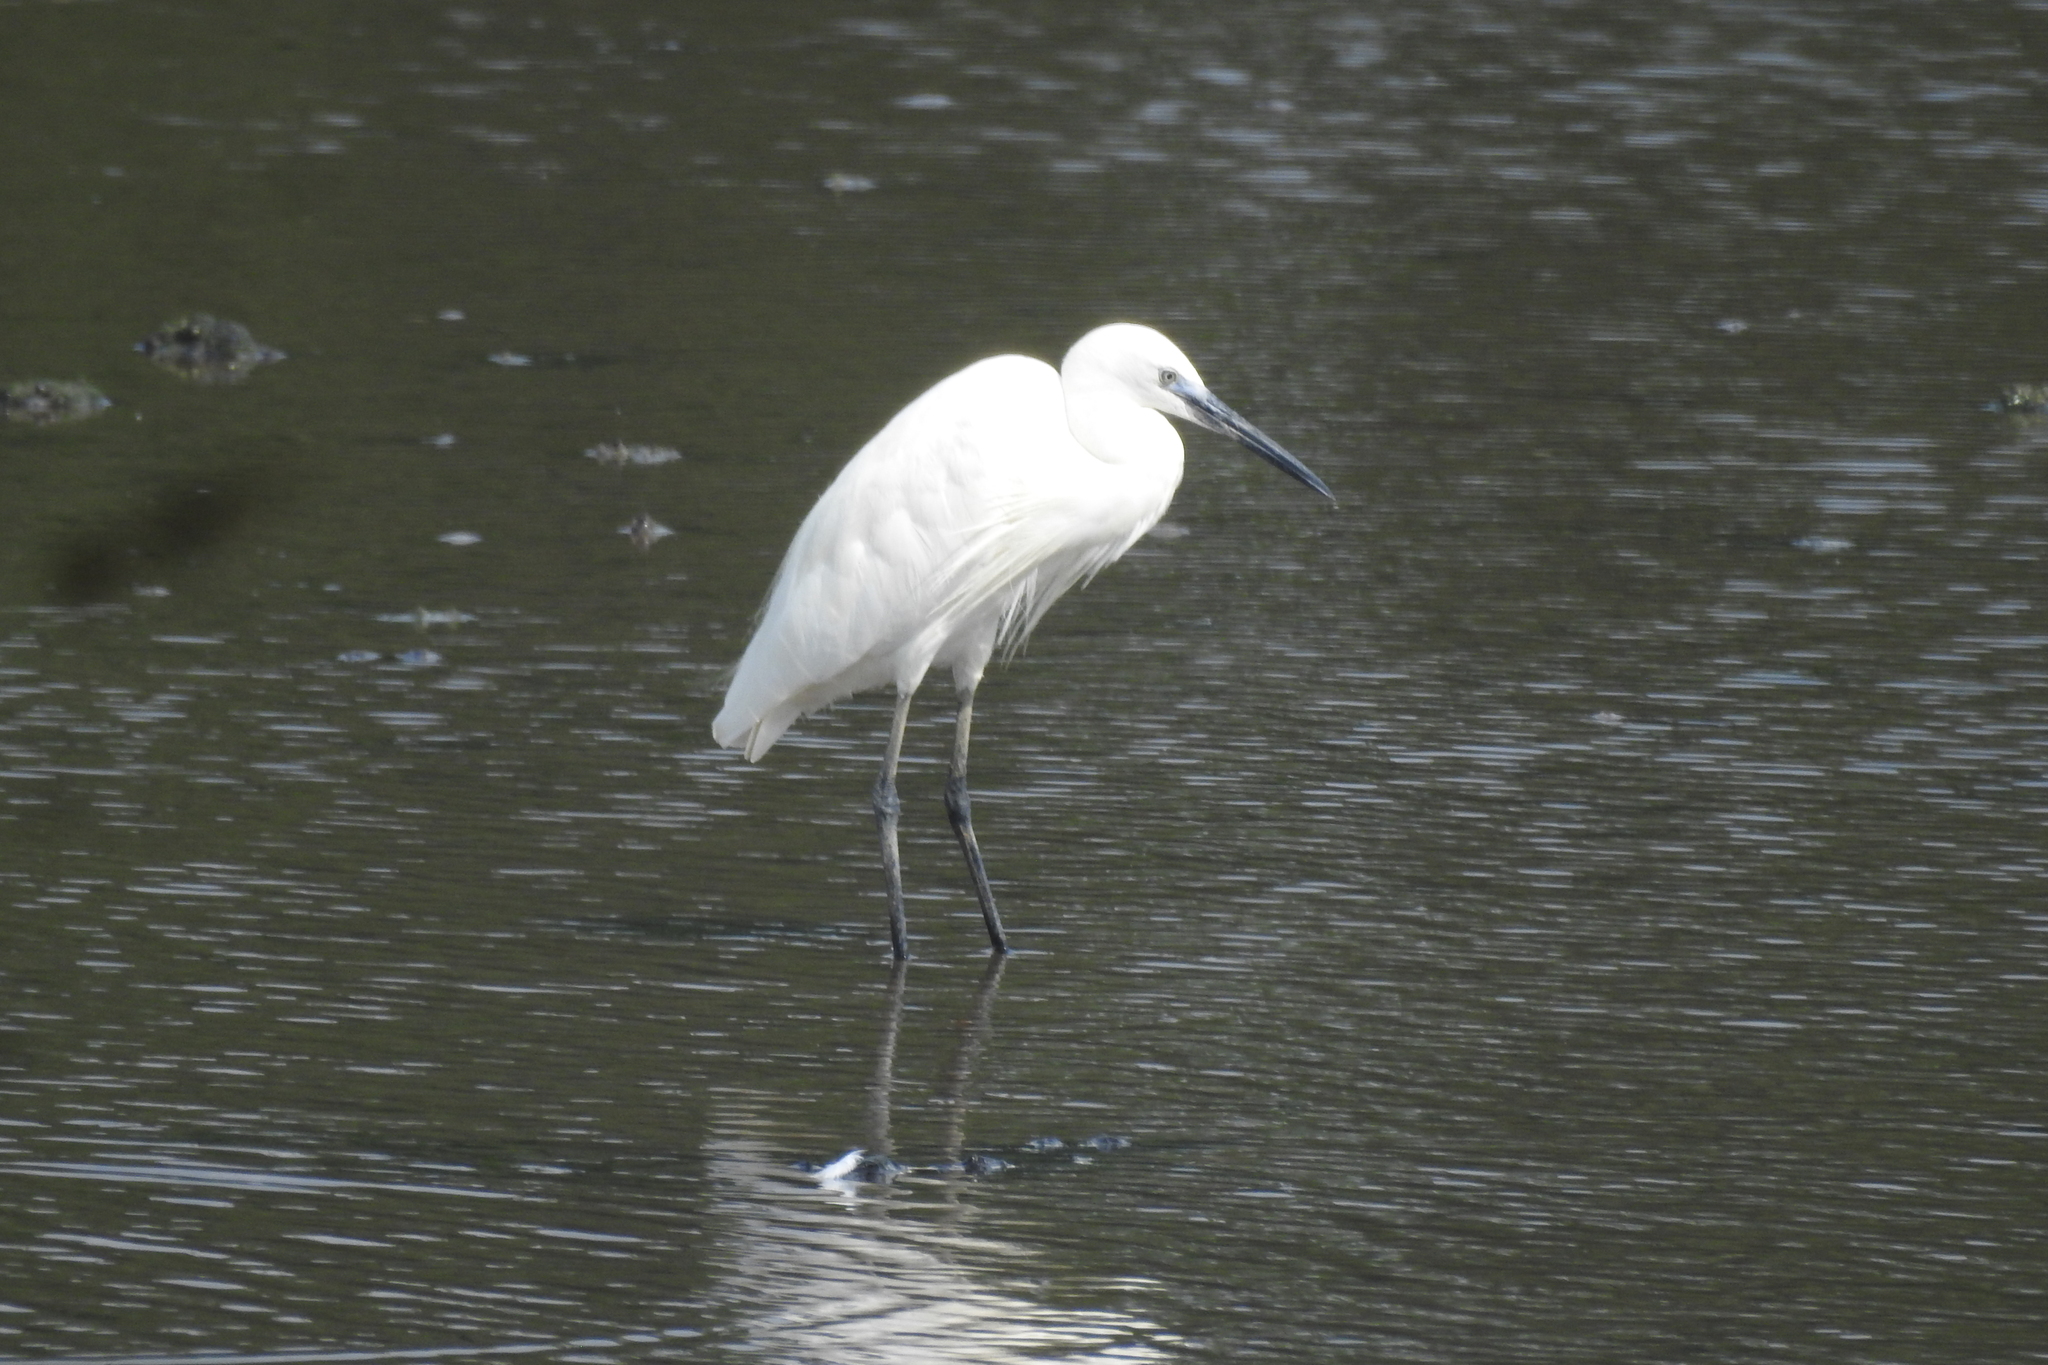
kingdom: Animalia
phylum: Chordata
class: Aves
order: Pelecaniformes
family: Ardeidae
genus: Egretta
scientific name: Egretta garzetta
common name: Little egret
